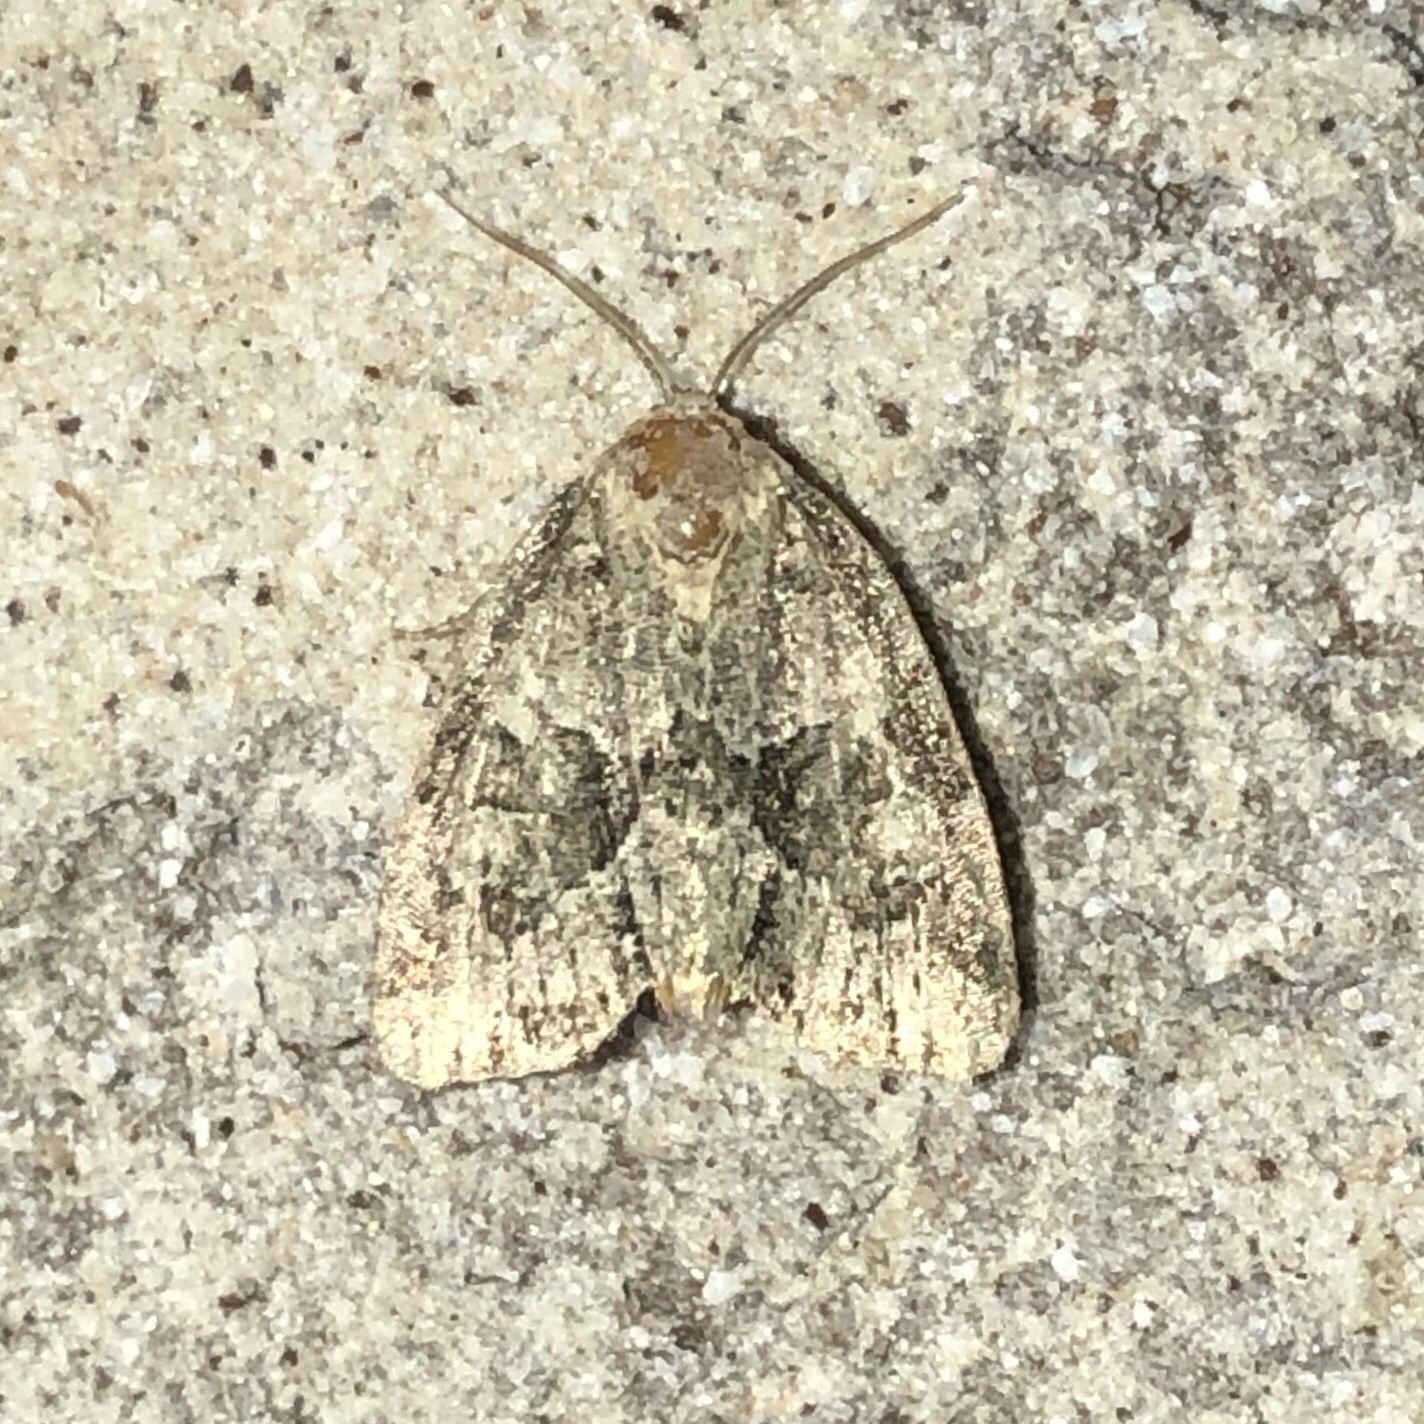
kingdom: Animalia
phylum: Arthropoda
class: Insecta
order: Lepidoptera
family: Noctuidae
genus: Neoligia
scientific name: Neoligia exhausta
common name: Exhausted brocade
